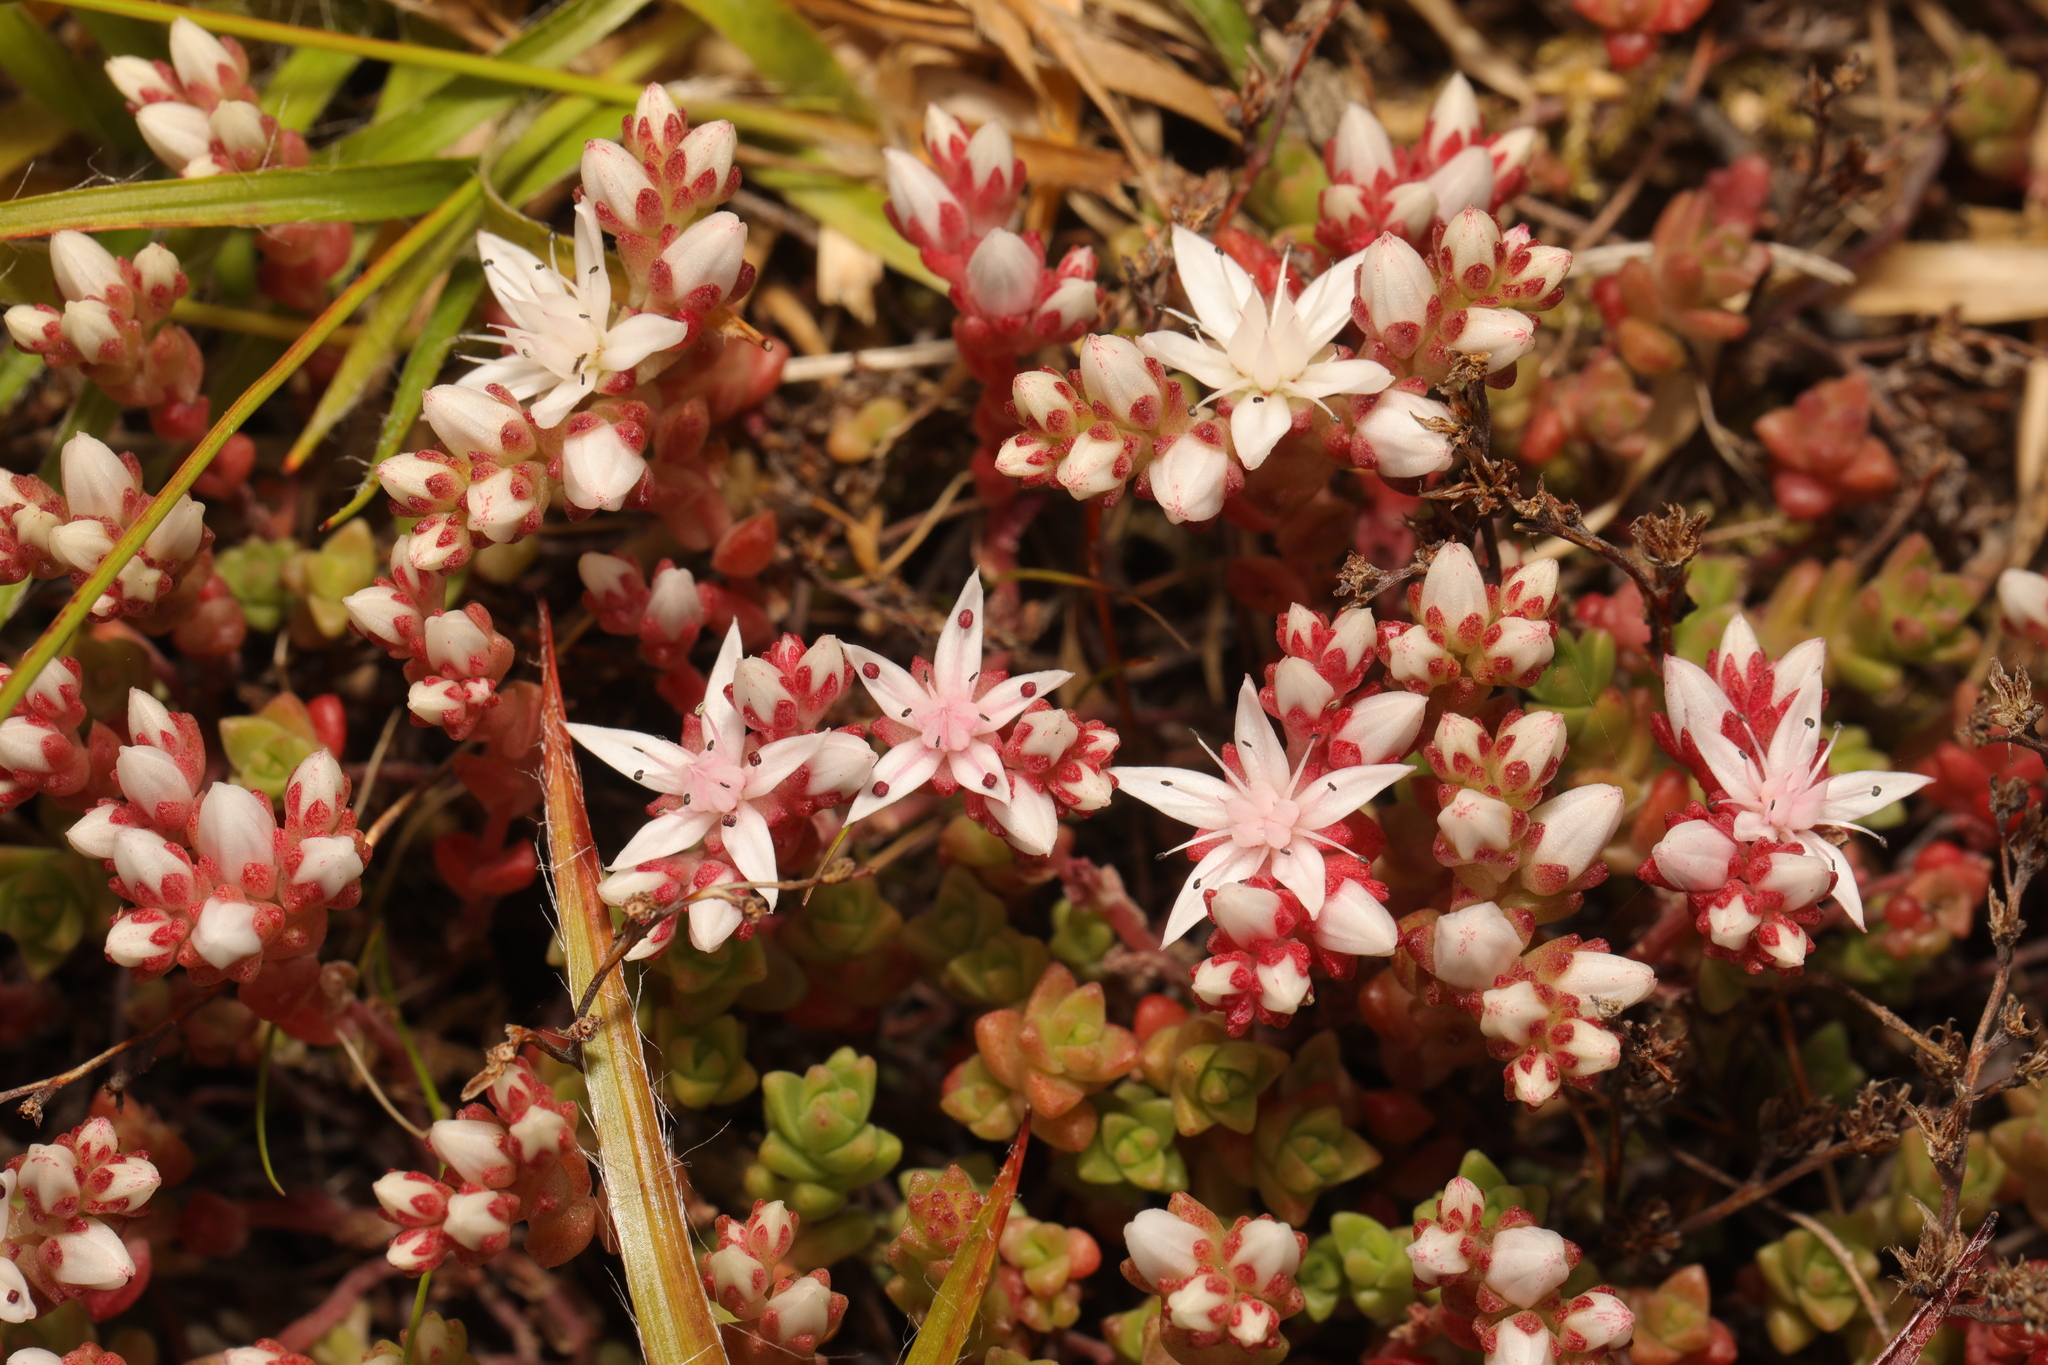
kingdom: Plantae
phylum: Tracheophyta
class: Magnoliopsida
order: Saxifragales
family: Crassulaceae
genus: Sedum
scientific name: Sedum anglicum
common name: English stonecrop
